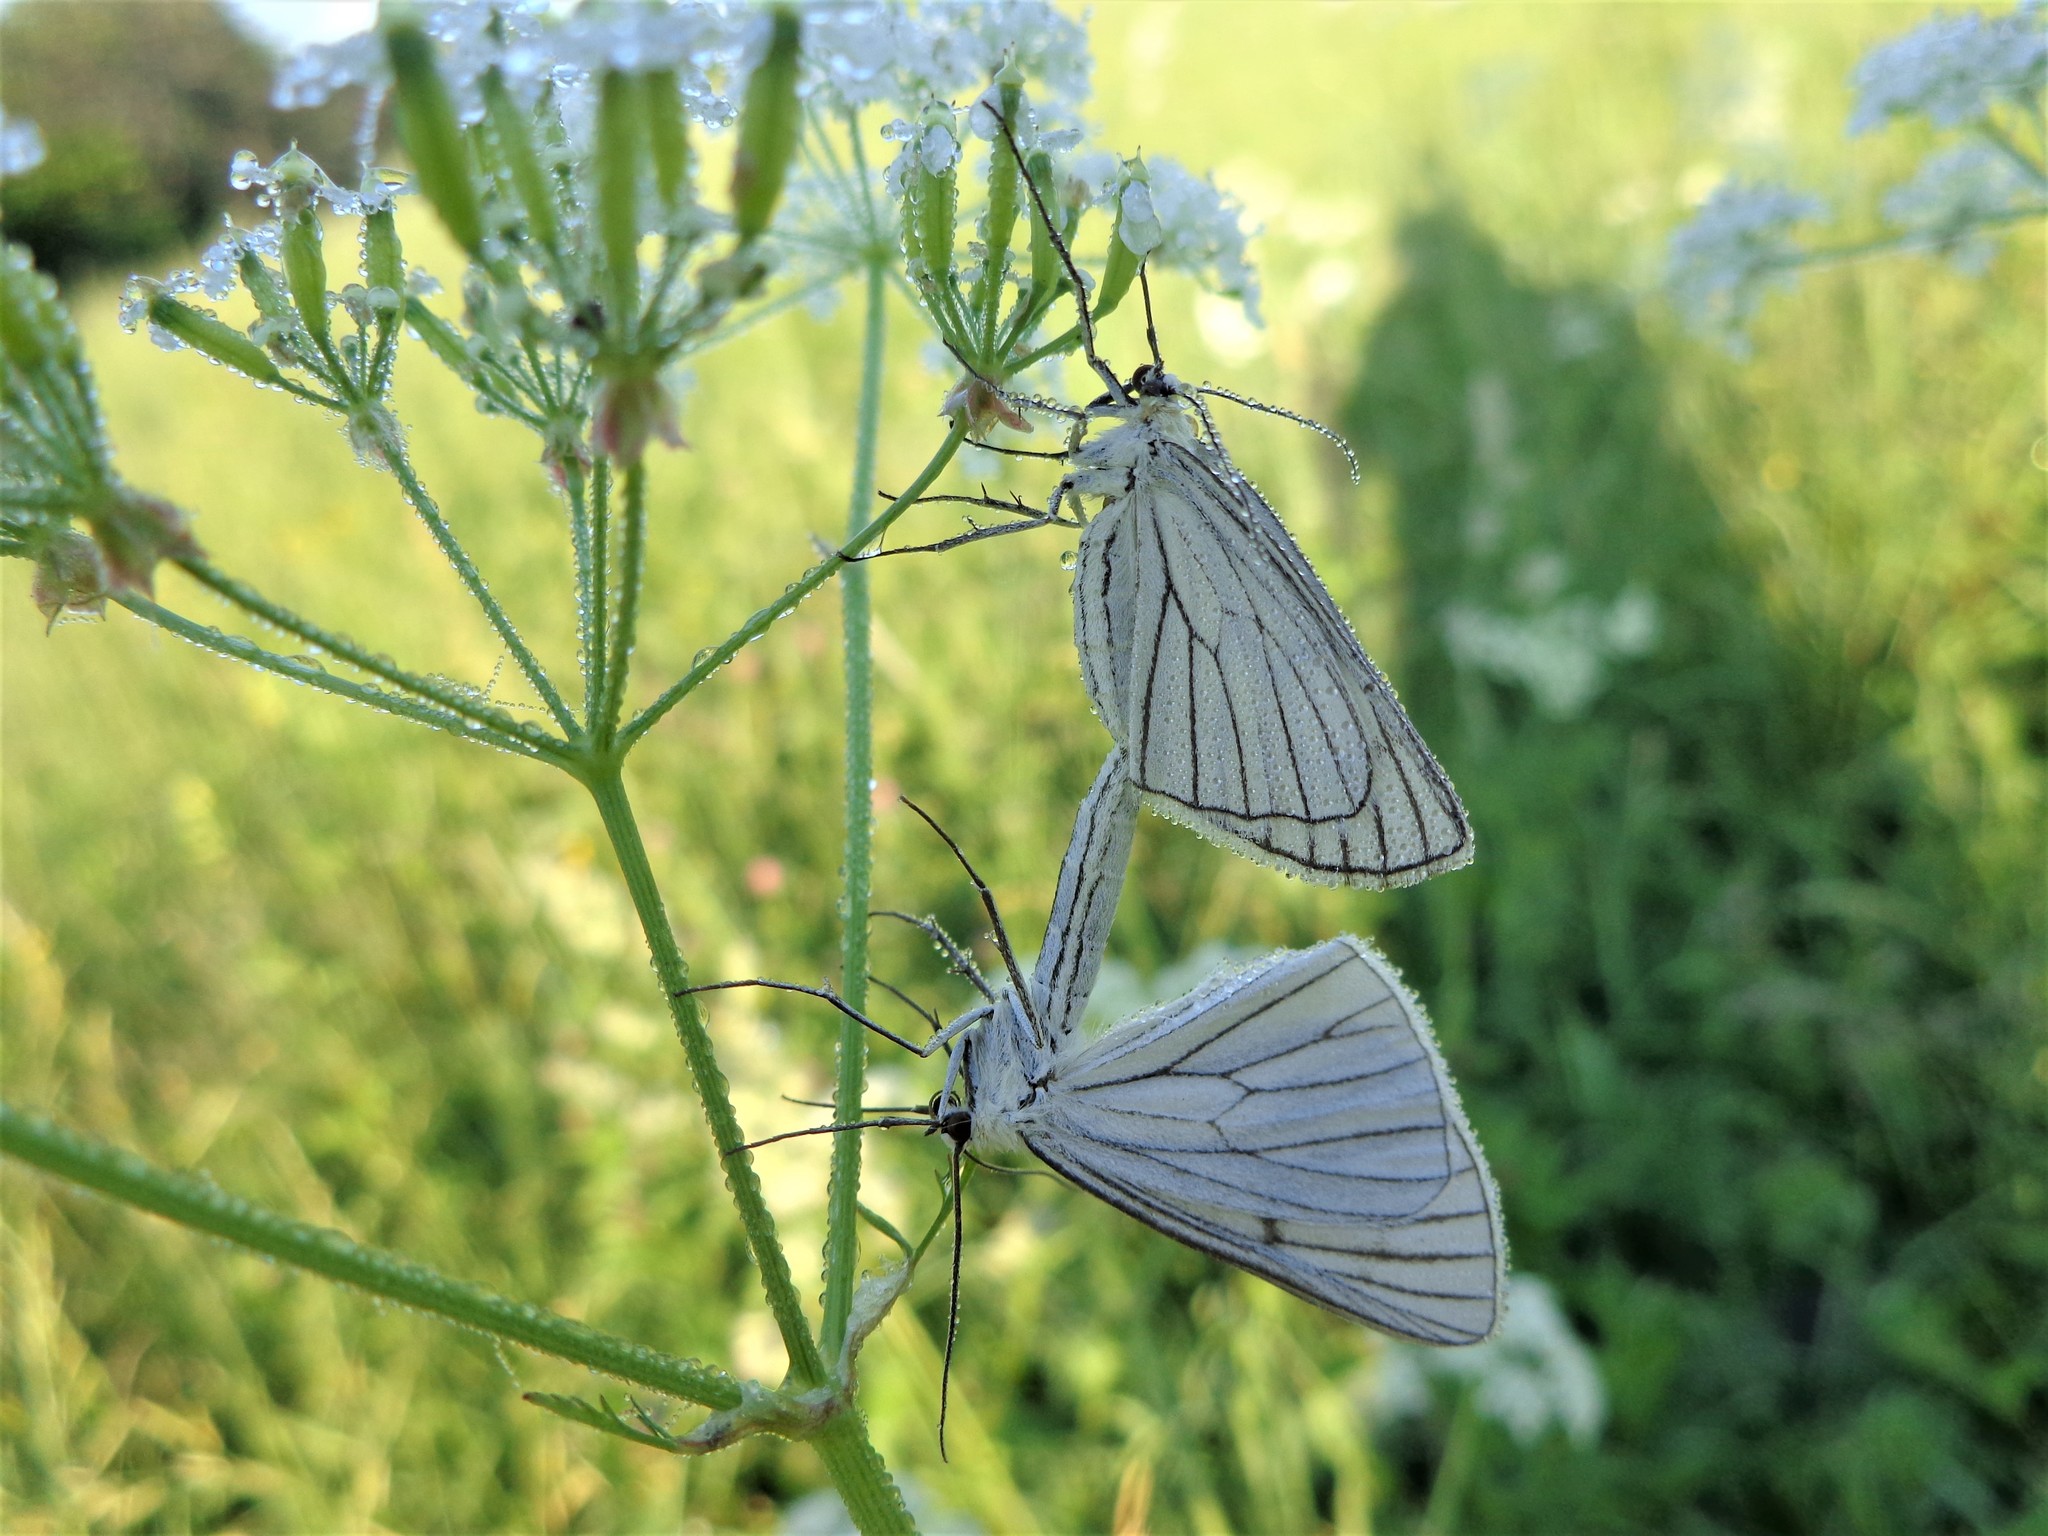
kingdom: Animalia
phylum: Arthropoda
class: Insecta
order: Lepidoptera
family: Geometridae
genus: Siona
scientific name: Siona lineata
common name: Black-veined moth
